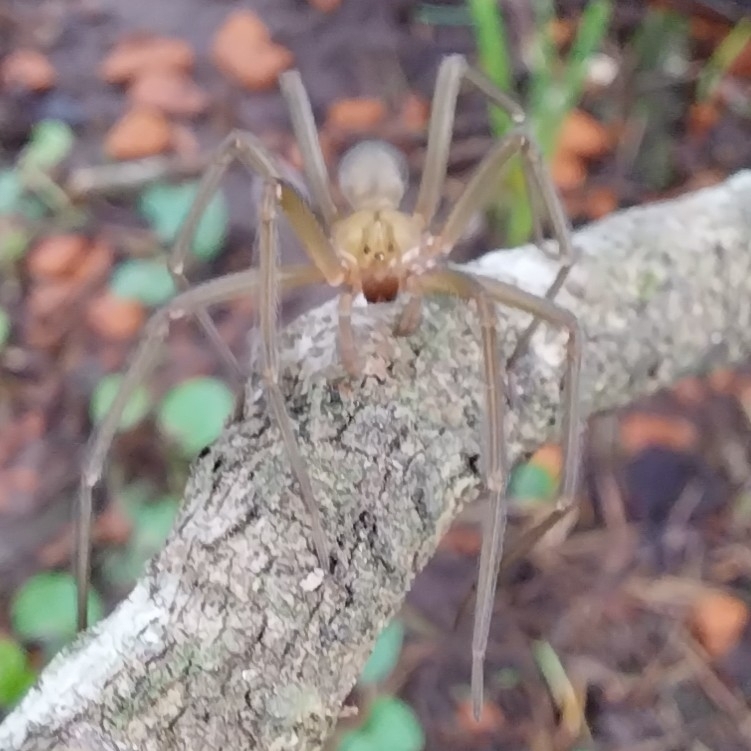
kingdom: Animalia
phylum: Arthropoda
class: Arachnida
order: Araneae
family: Sicariidae
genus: Loxosceles
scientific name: Loxosceles laeta
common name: Chilean recluse spider
